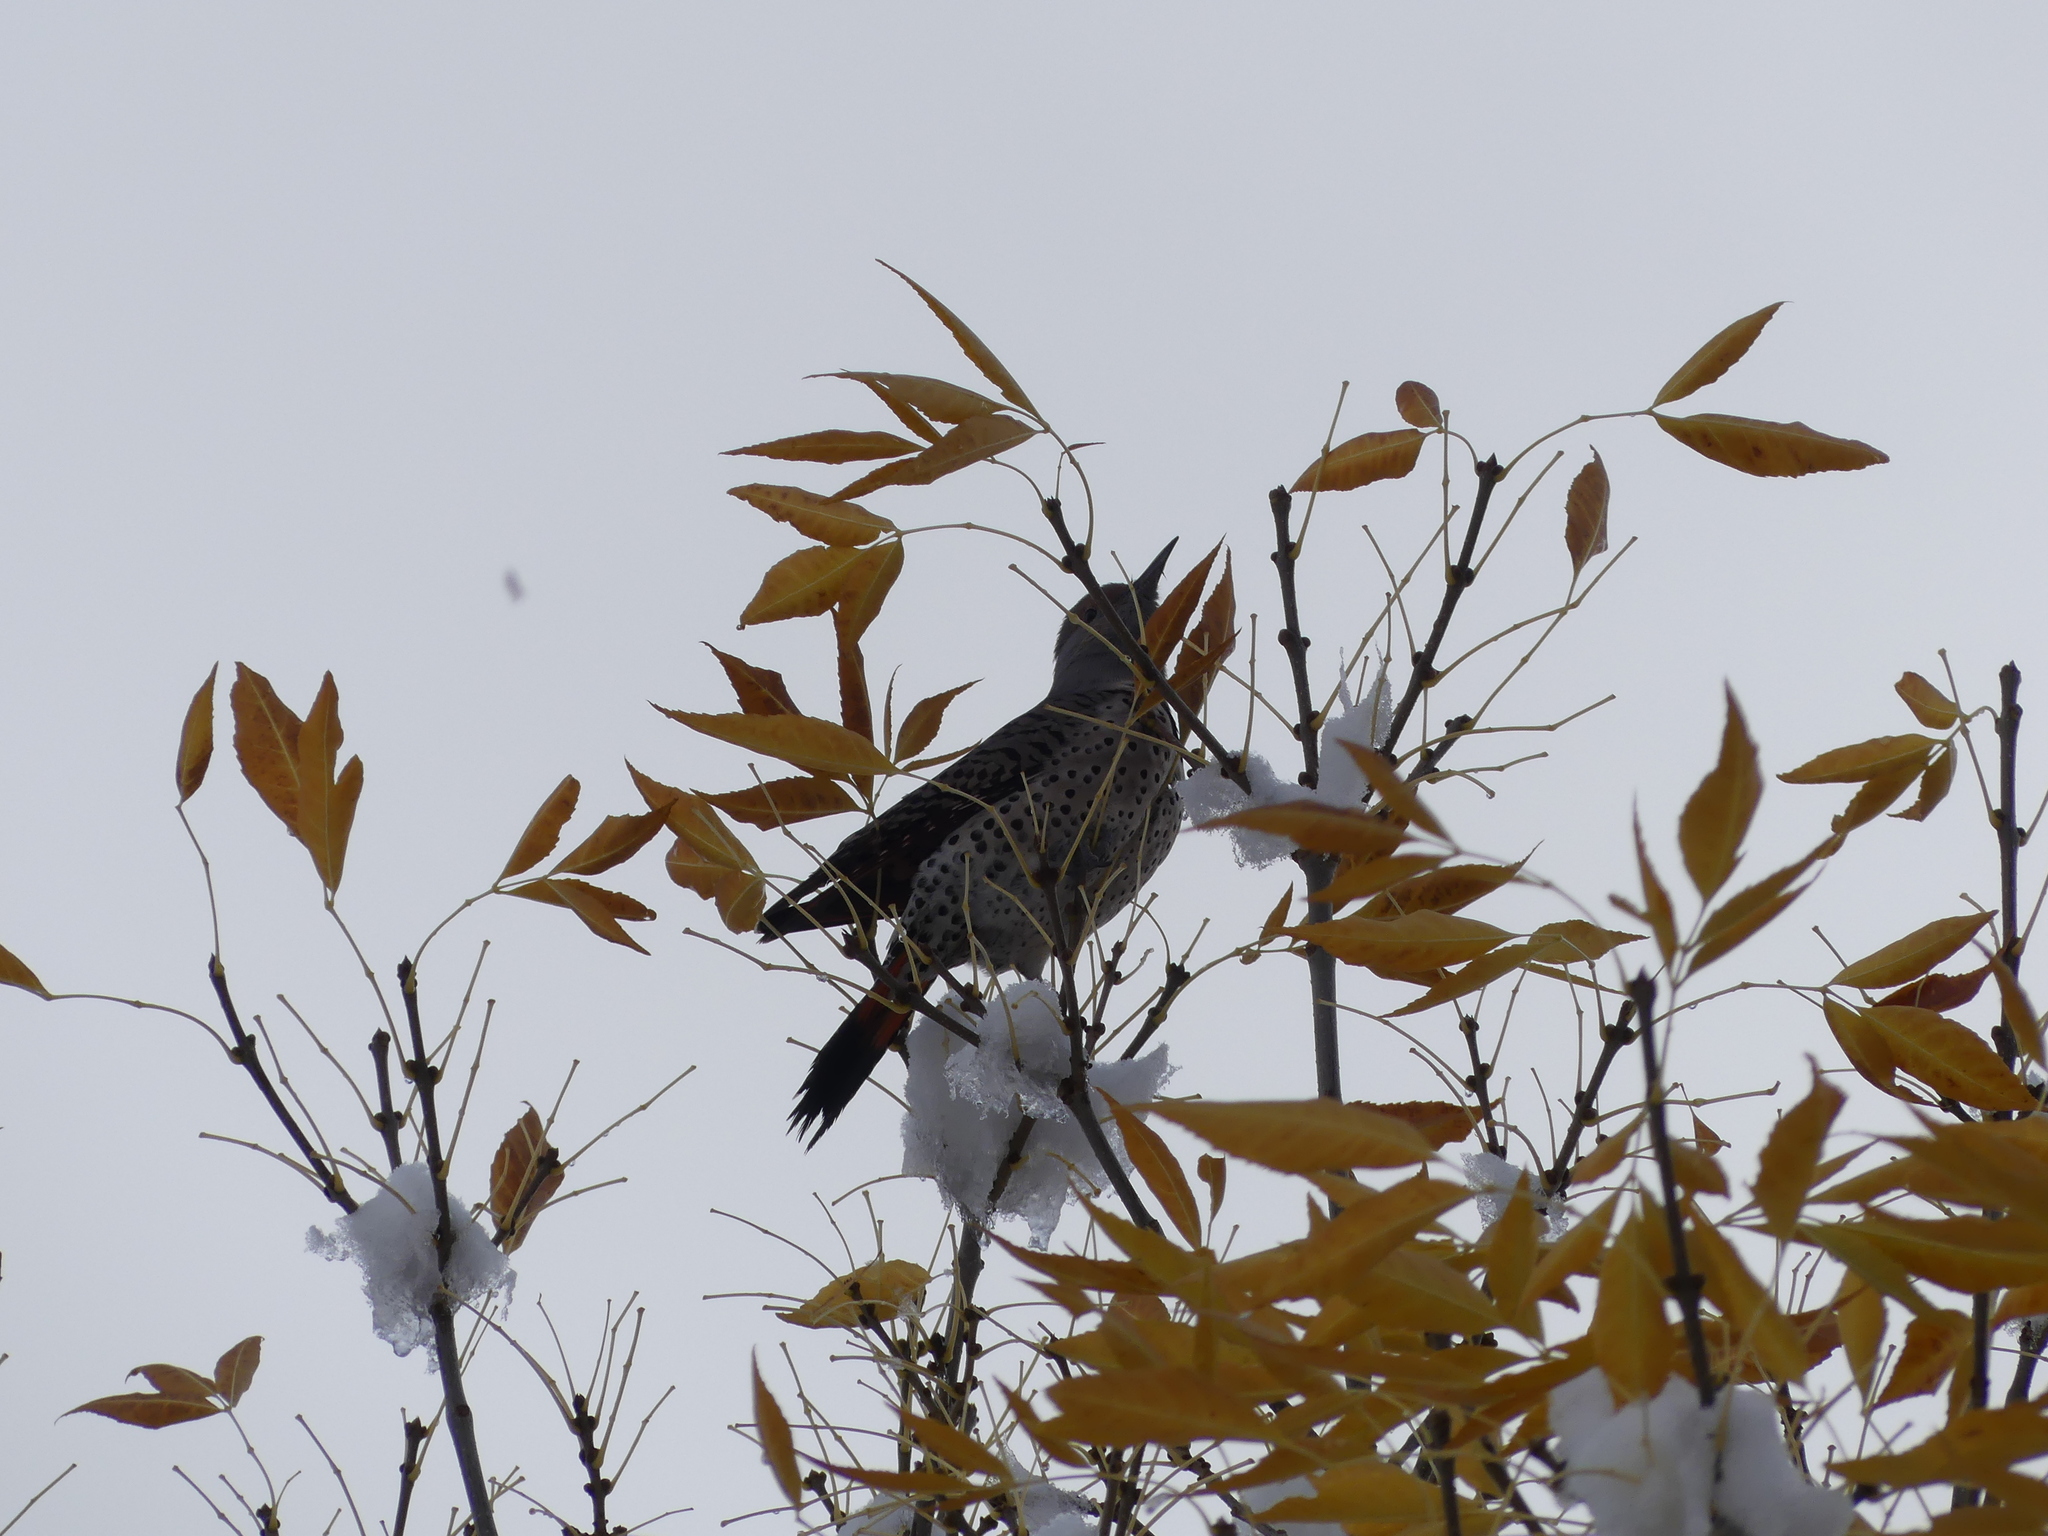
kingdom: Animalia
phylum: Chordata
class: Aves
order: Piciformes
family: Picidae
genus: Colaptes
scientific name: Colaptes auratus
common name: Northern flicker
